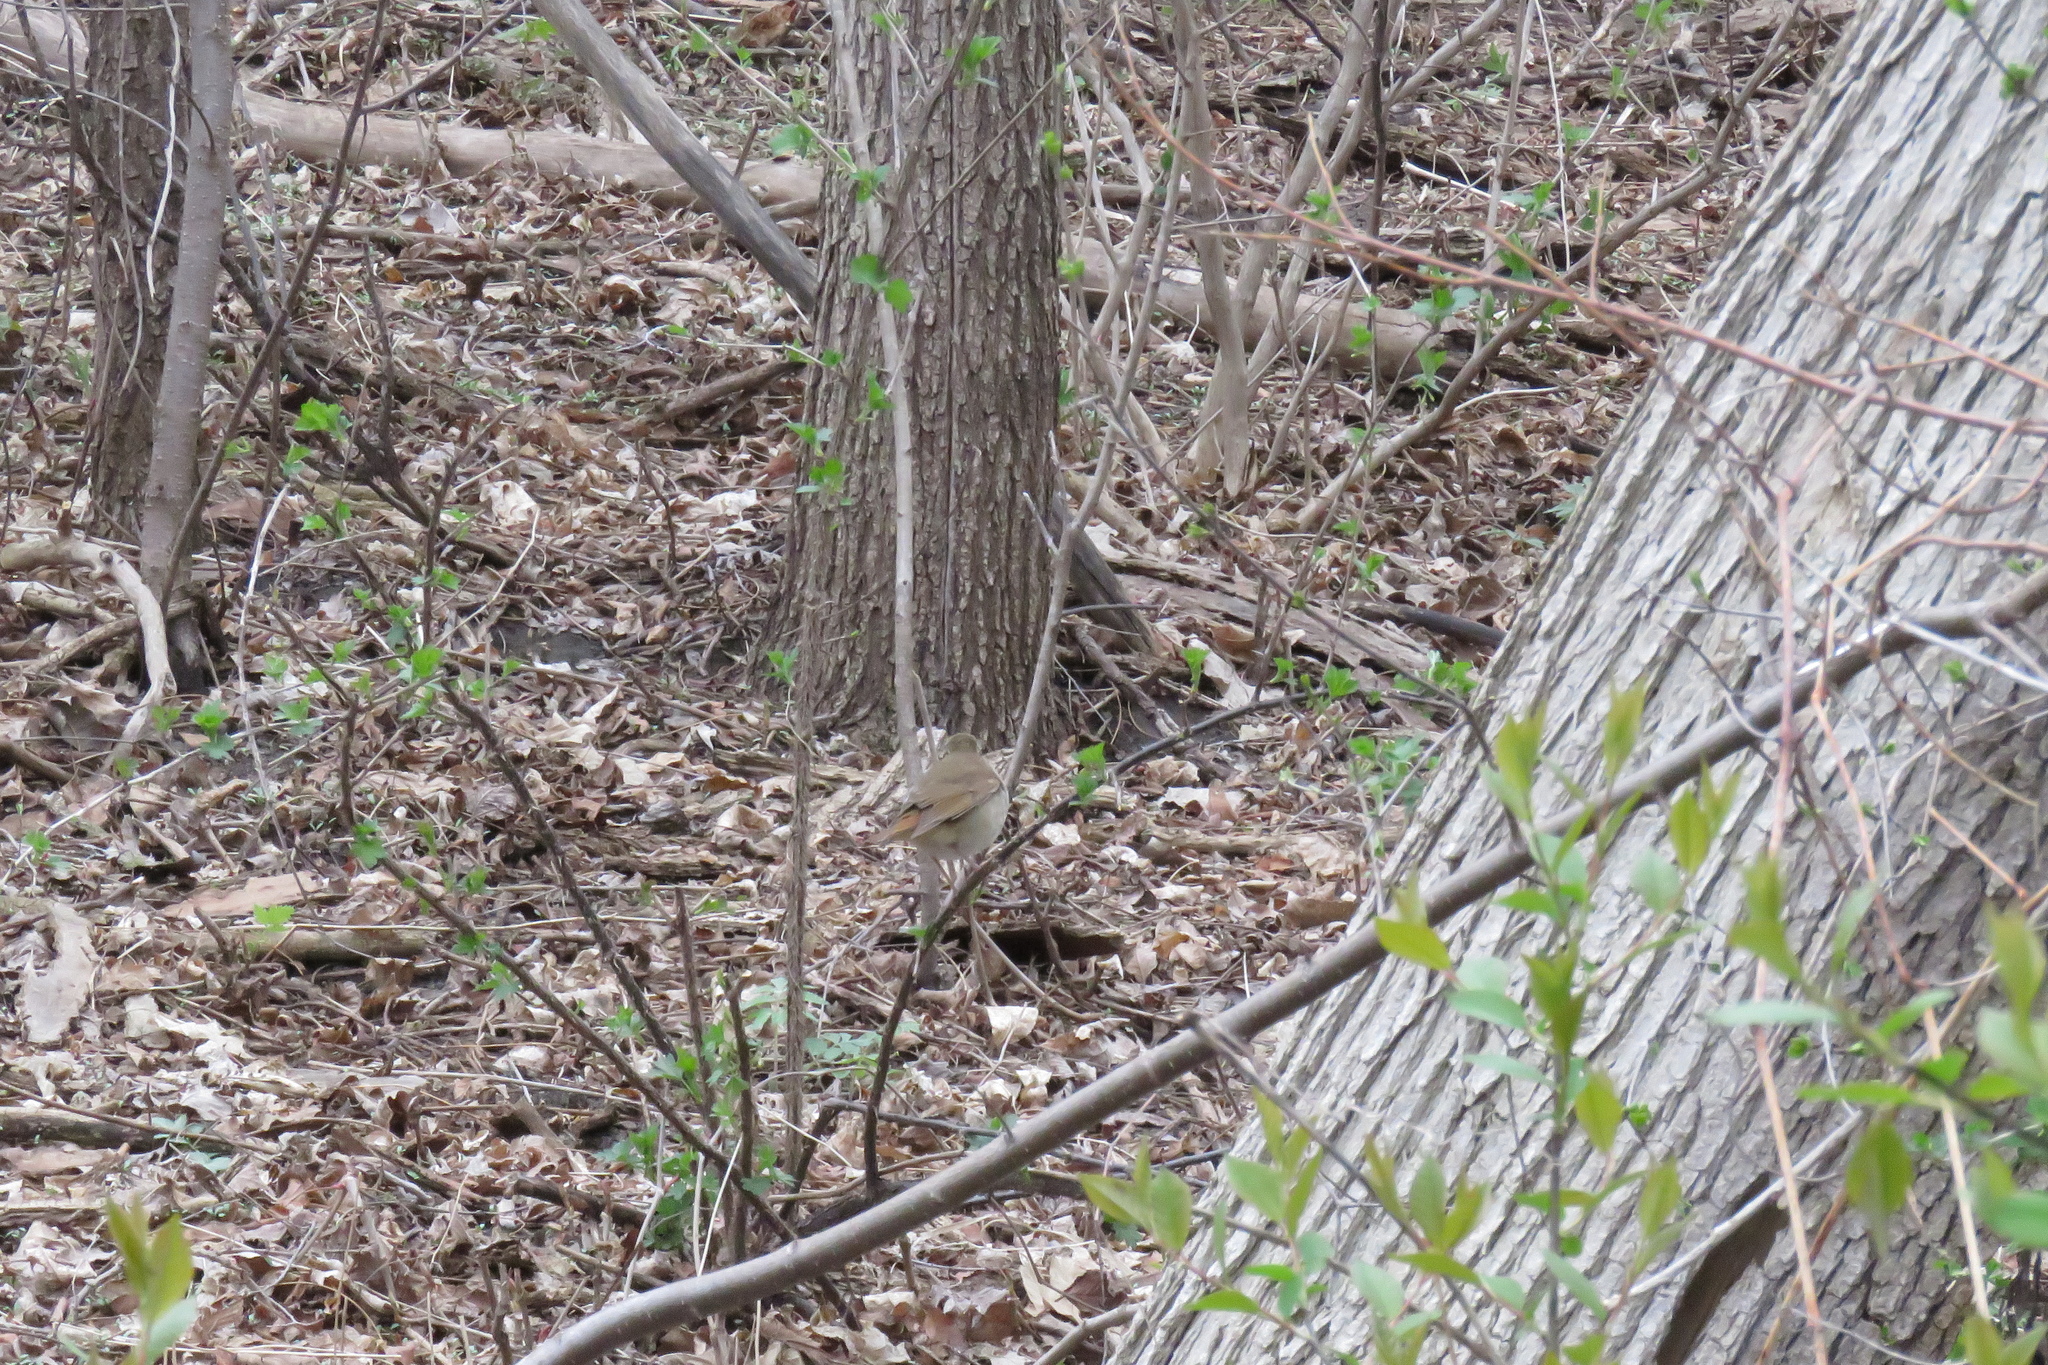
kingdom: Animalia
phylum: Chordata
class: Aves
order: Passeriformes
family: Turdidae
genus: Catharus
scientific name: Catharus guttatus
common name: Hermit thrush
